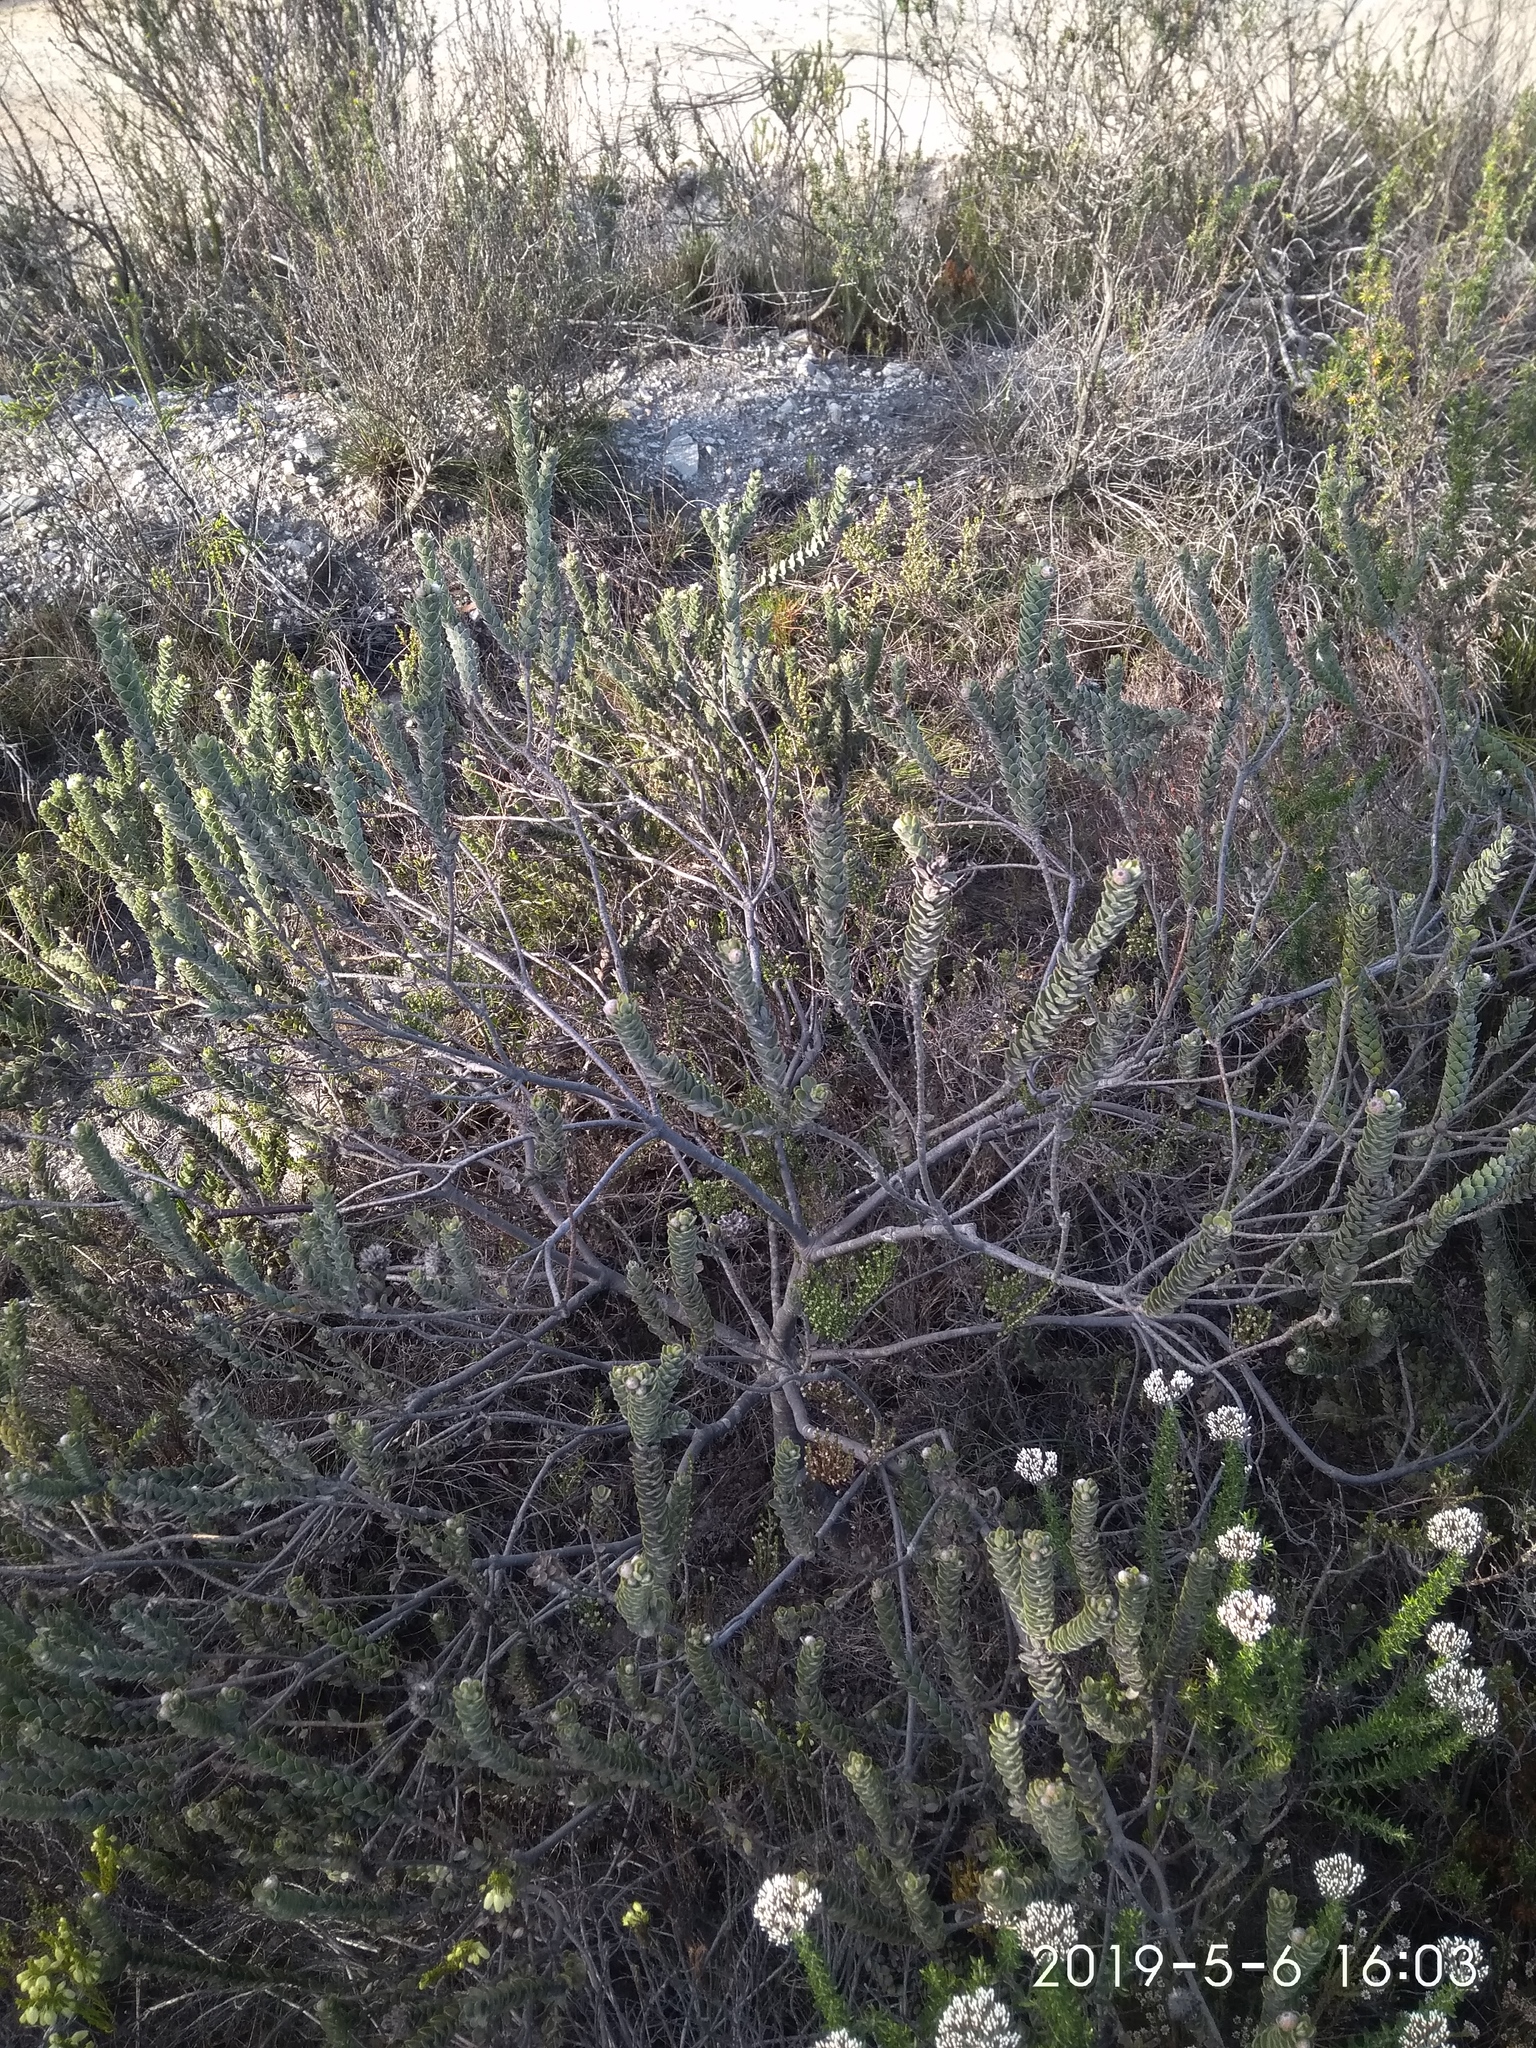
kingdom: Plantae
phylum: Tracheophyta
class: Magnoliopsida
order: Proteales
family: Proteaceae
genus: Leucospermum
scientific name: Leucospermum truncatulum
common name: Oval-leaf pincushion
